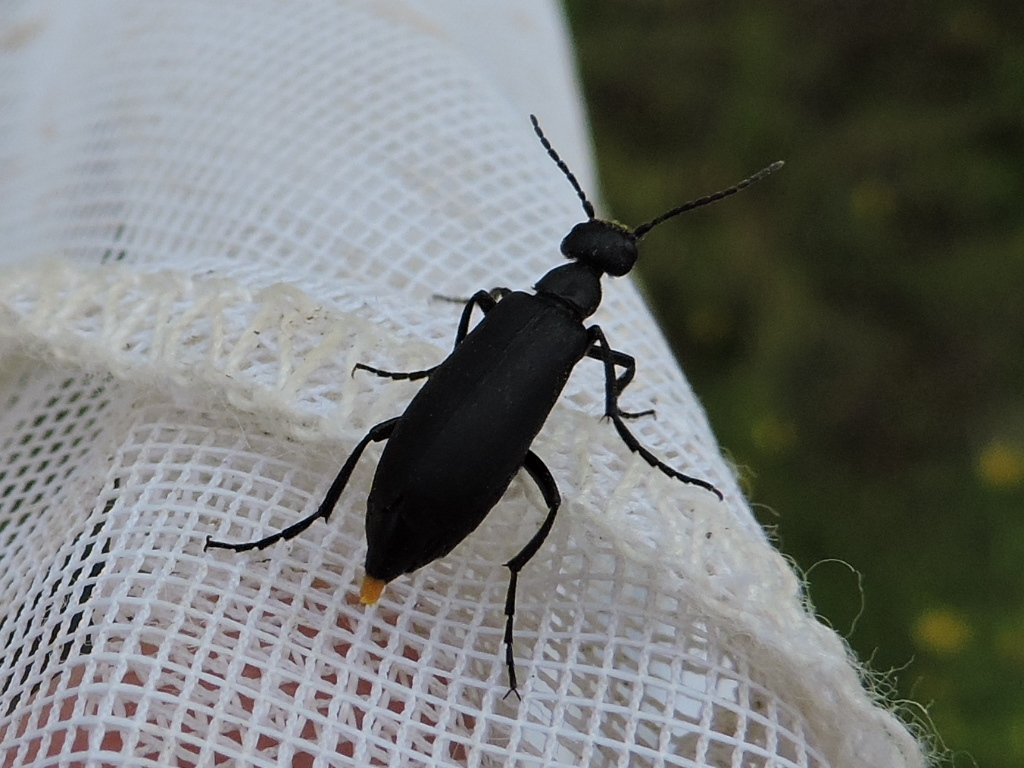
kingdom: Animalia
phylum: Arthropoda
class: Insecta
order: Coleoptera
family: Meloidae
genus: Epicauta
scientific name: Epicauta pensylvanica
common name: Black blister beetle
